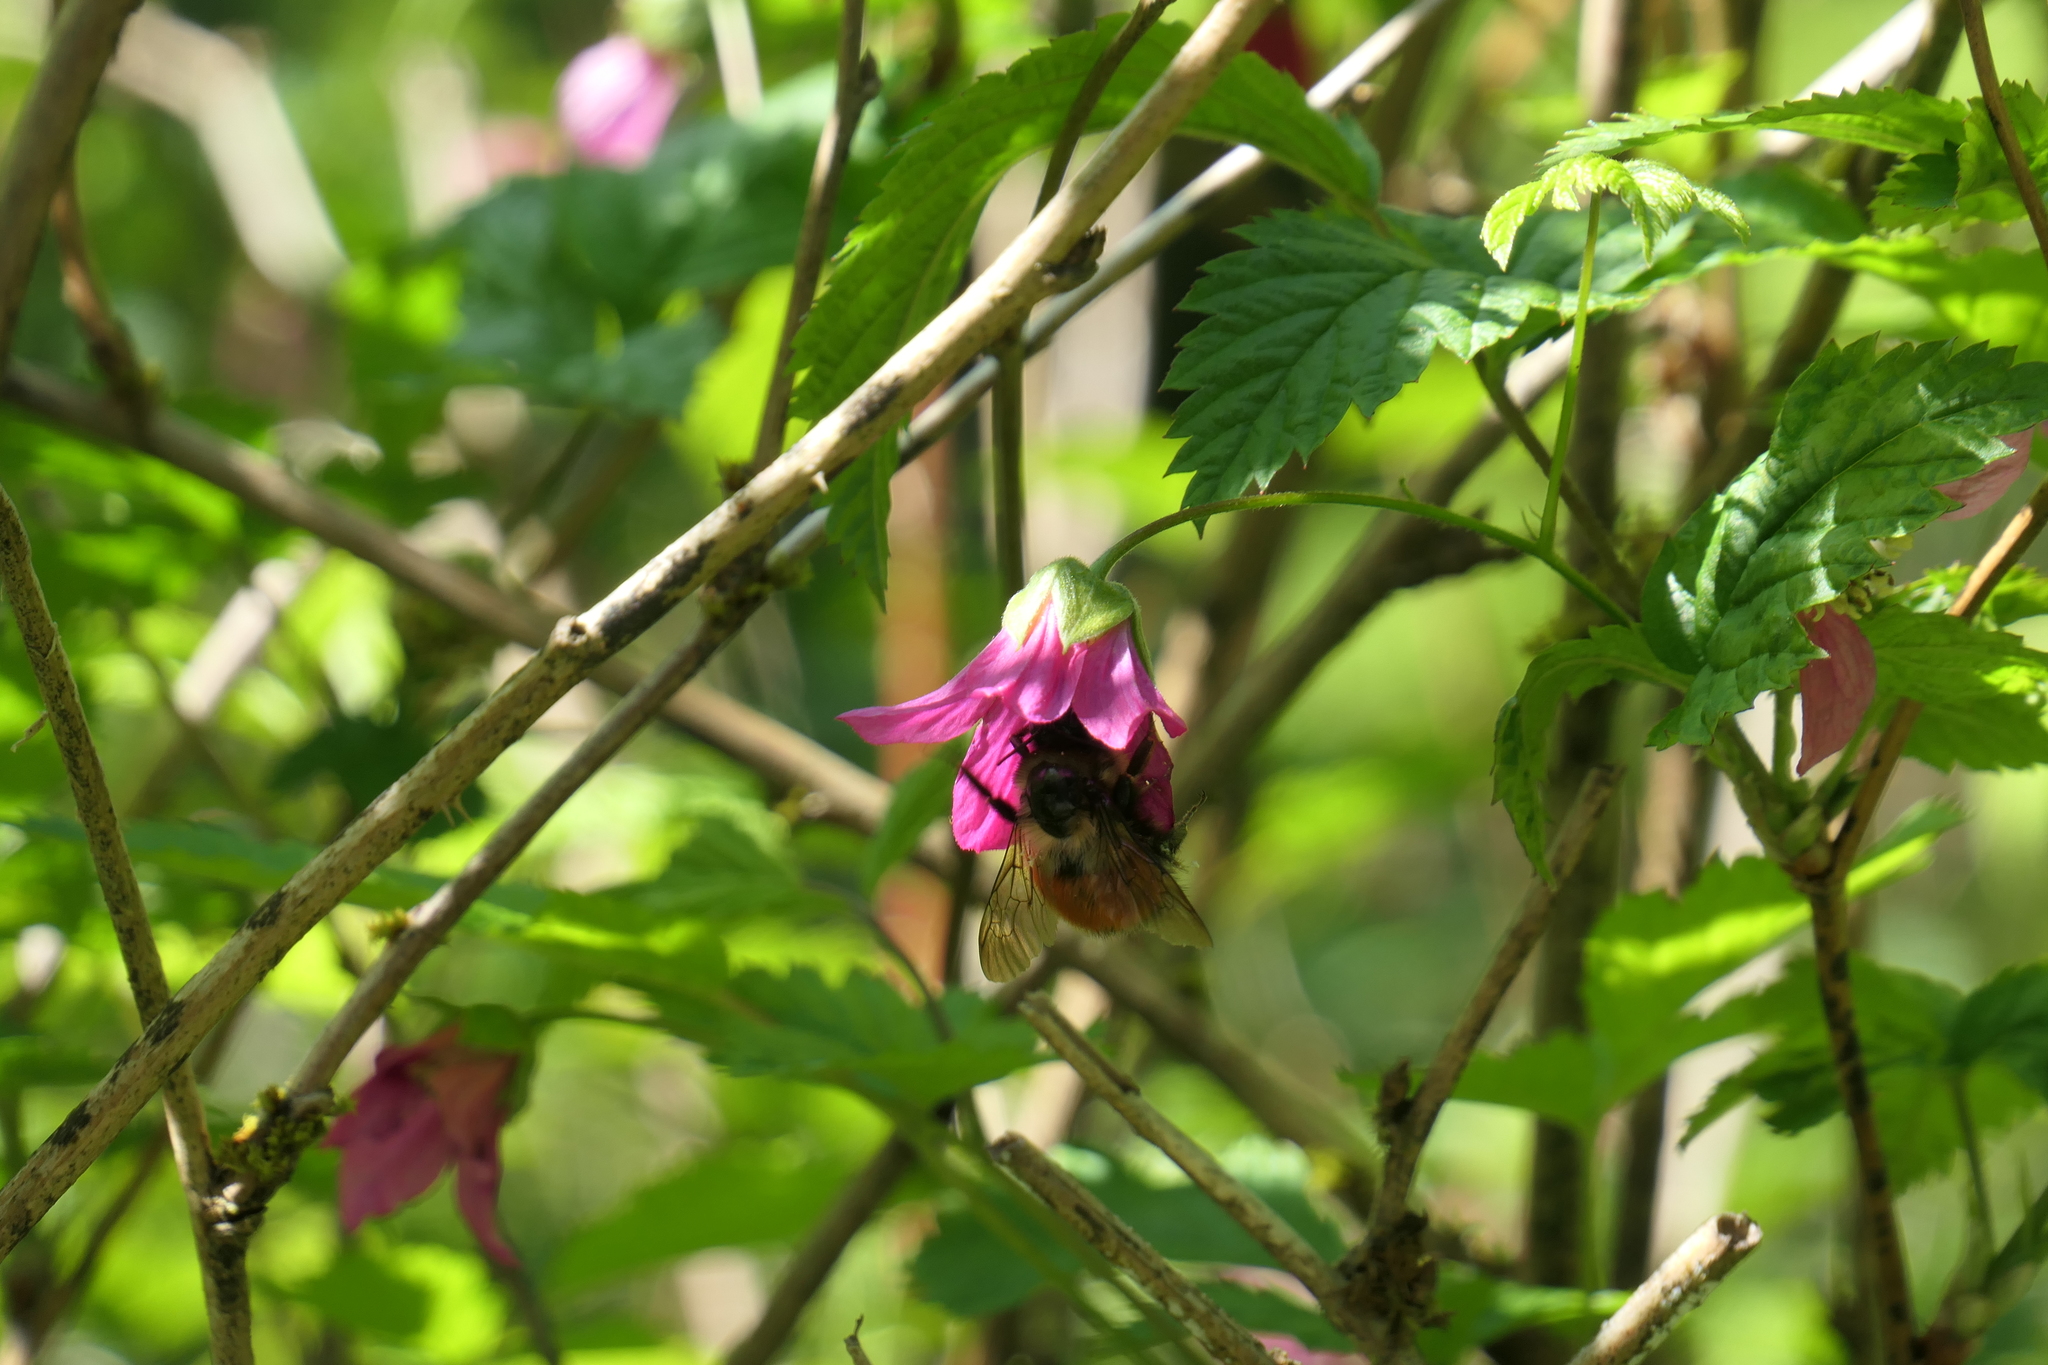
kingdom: Animalia
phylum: Arthropoda
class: Insecta
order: Hymenoptera
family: Apidae
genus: Bombus
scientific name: Bombus melanopygus
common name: Black tail bumble bee
